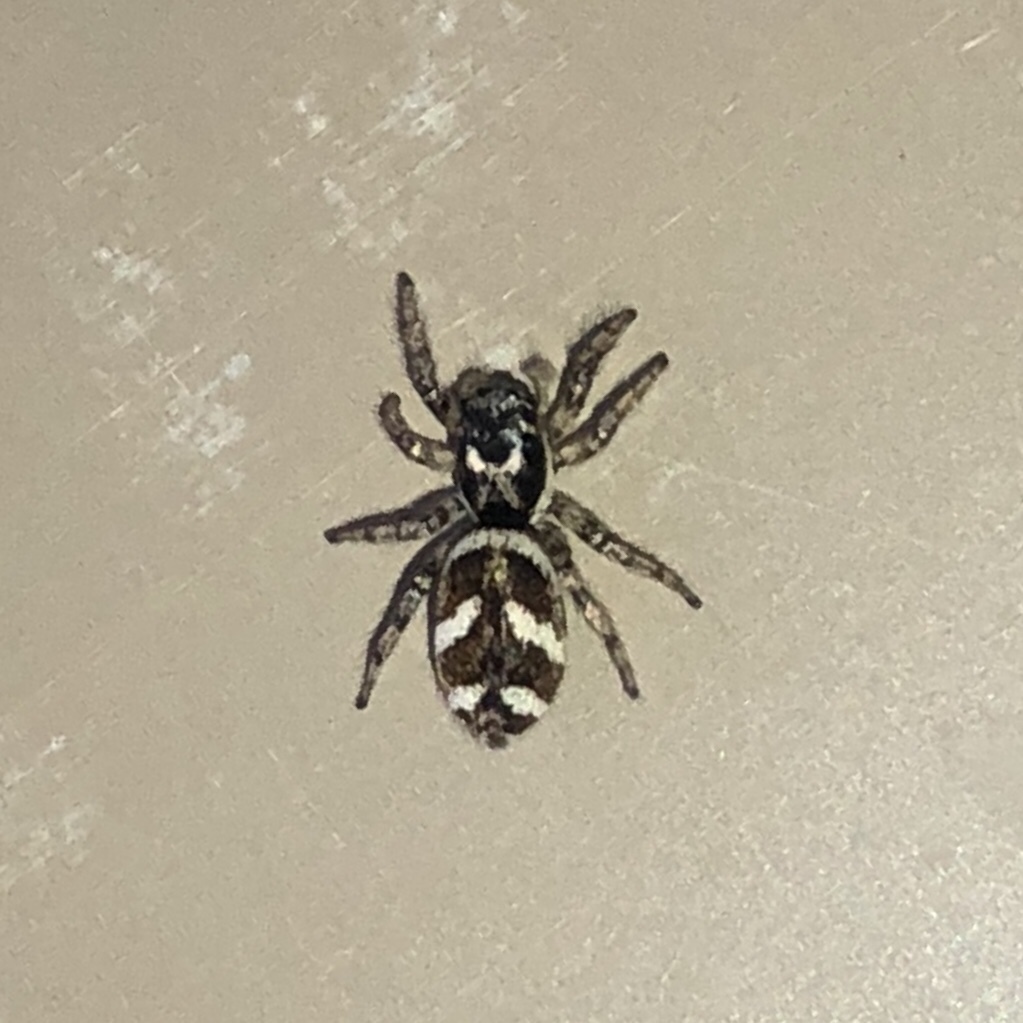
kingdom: Animalia
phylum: Arthropoda
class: Arachnida
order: Araneae
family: Salticidae
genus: Salticus
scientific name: Salticus scenicus
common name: Zebra jumper
